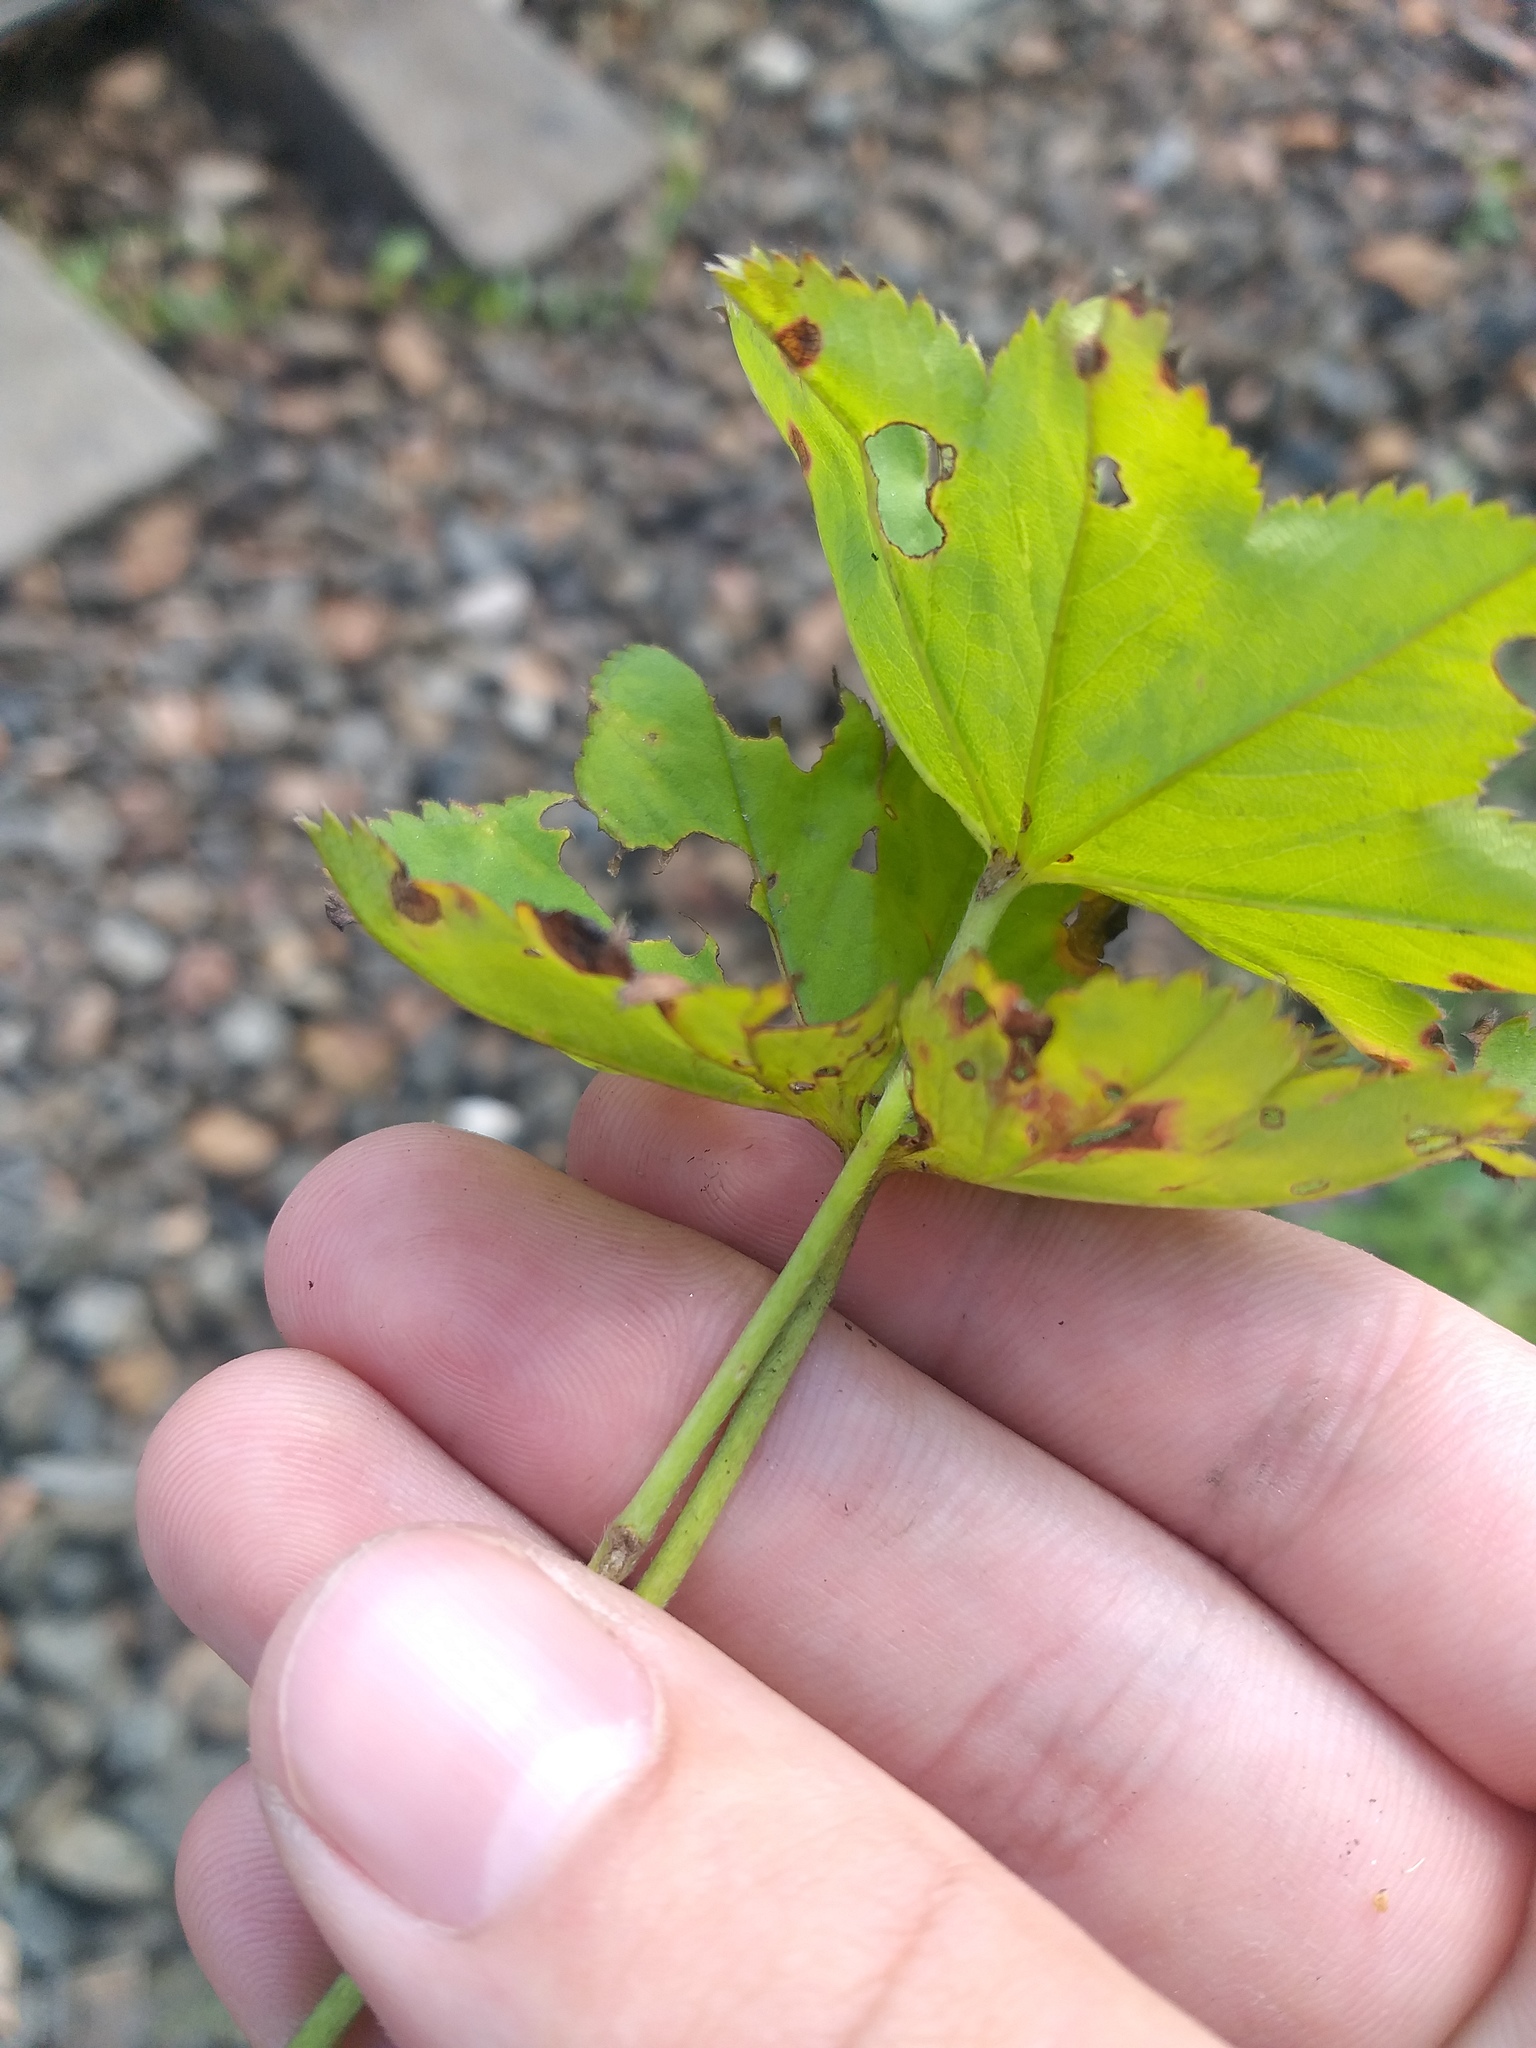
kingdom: Plantae
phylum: Tracheophyta
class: Magnoliopsida
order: Rosales
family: Rosaceae
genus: Alchemilla
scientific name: Alchemilla baltica
